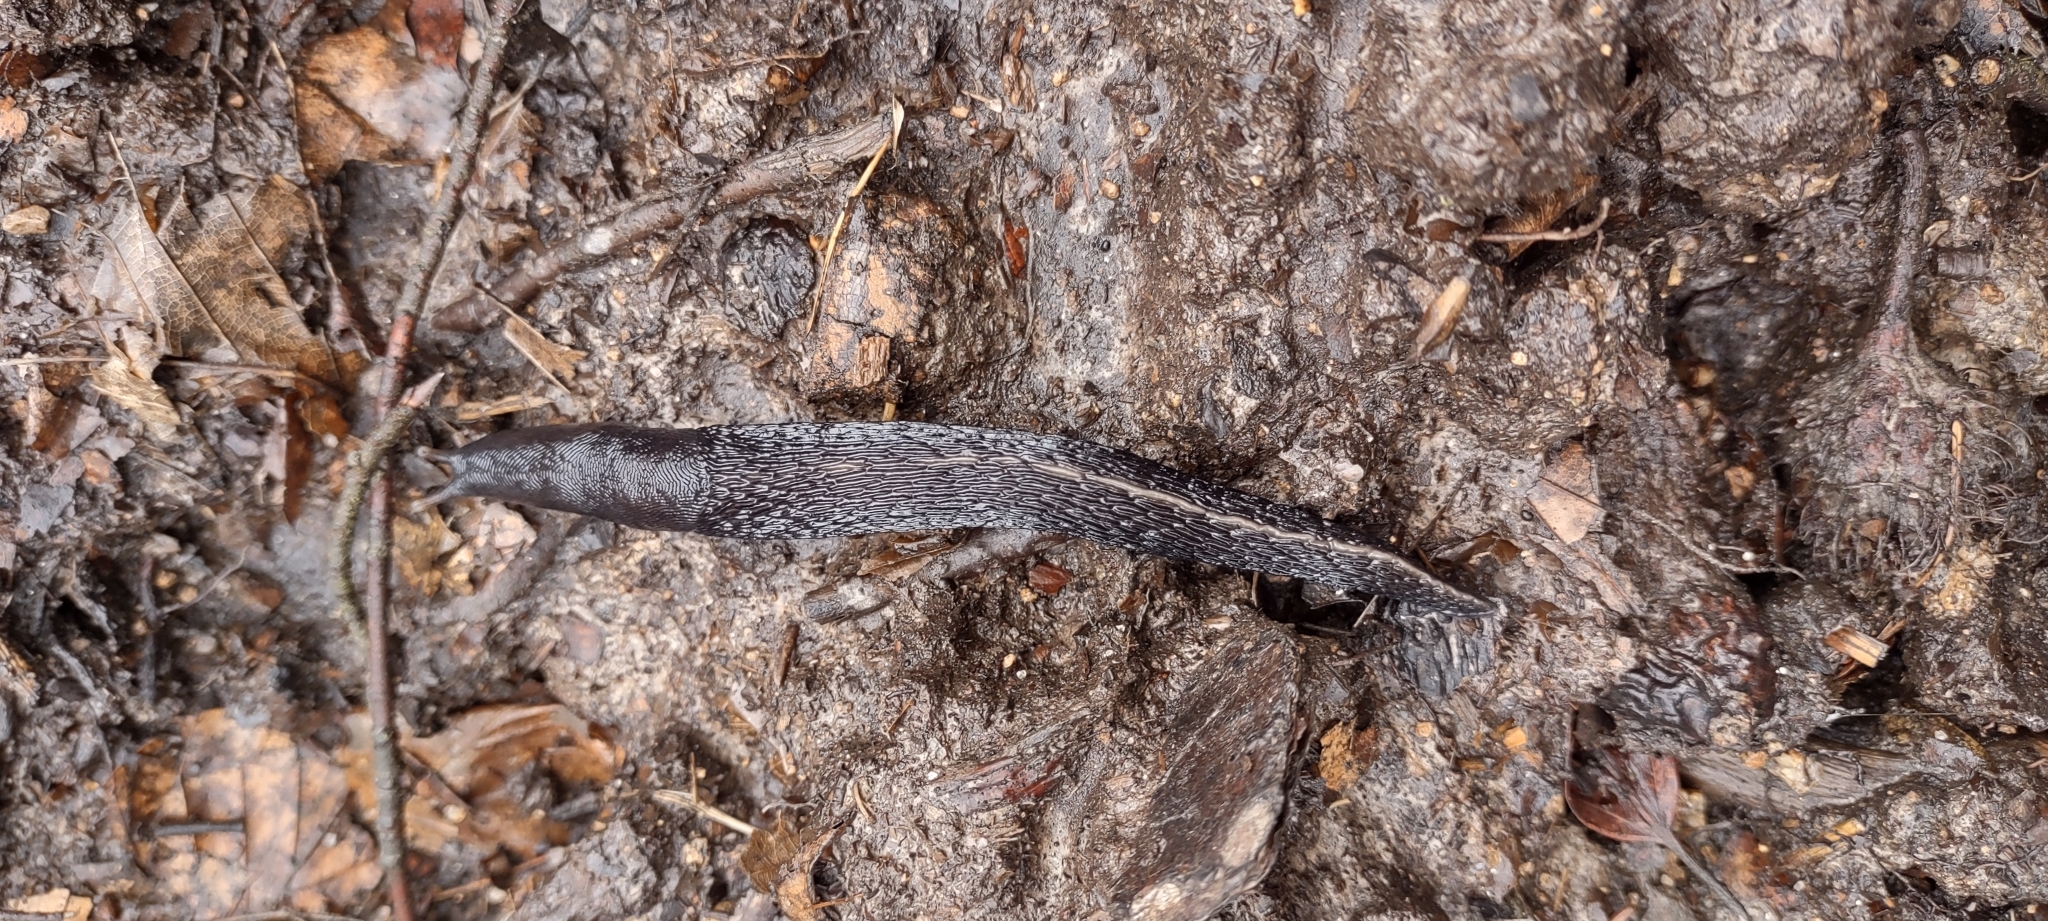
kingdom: Animalia
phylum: Mollusca
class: Gastropoda
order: Stylommatophora
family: Limacidae
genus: Limax
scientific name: Limax cinereoniger
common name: Ash-black slug
